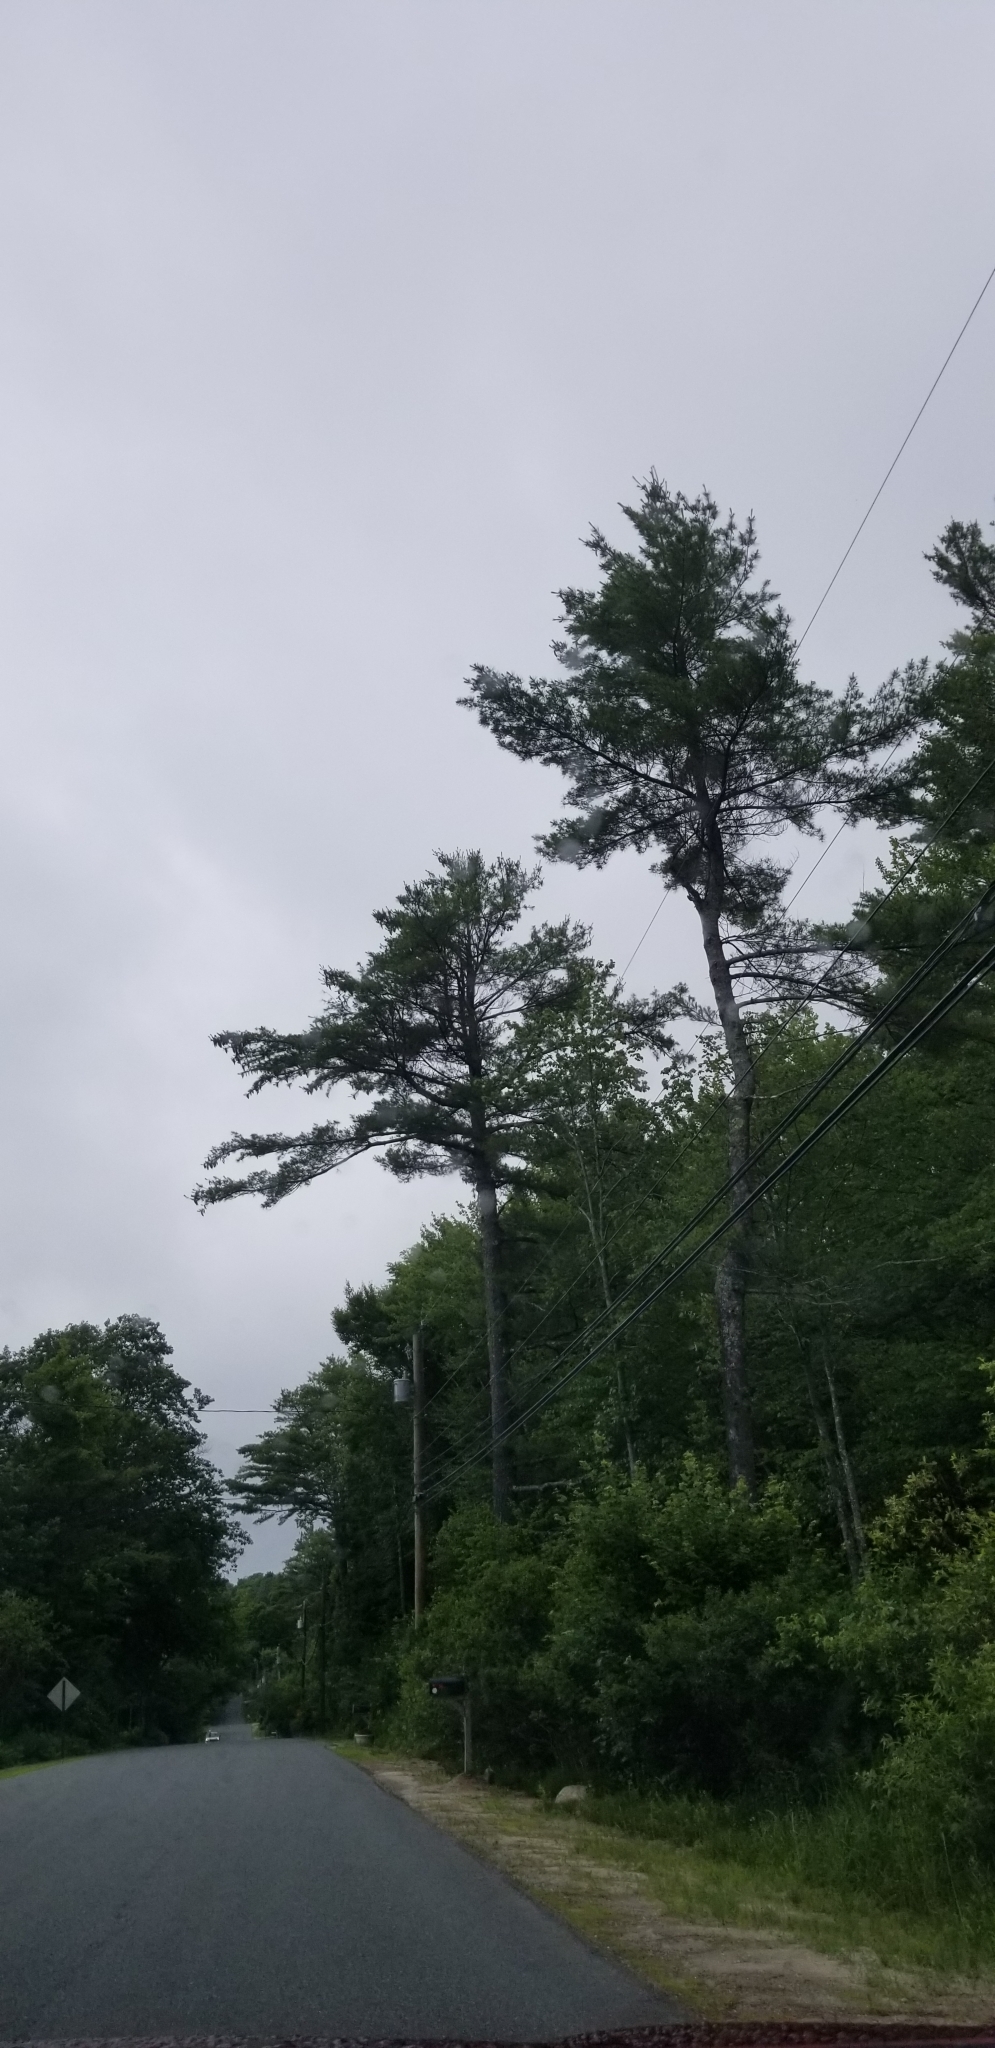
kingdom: Plantae
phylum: Tracheophyta
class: Pinopsida
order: Pinales
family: Pinaceae
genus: Pinus
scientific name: Pinus strobus
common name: Weymouth pine
